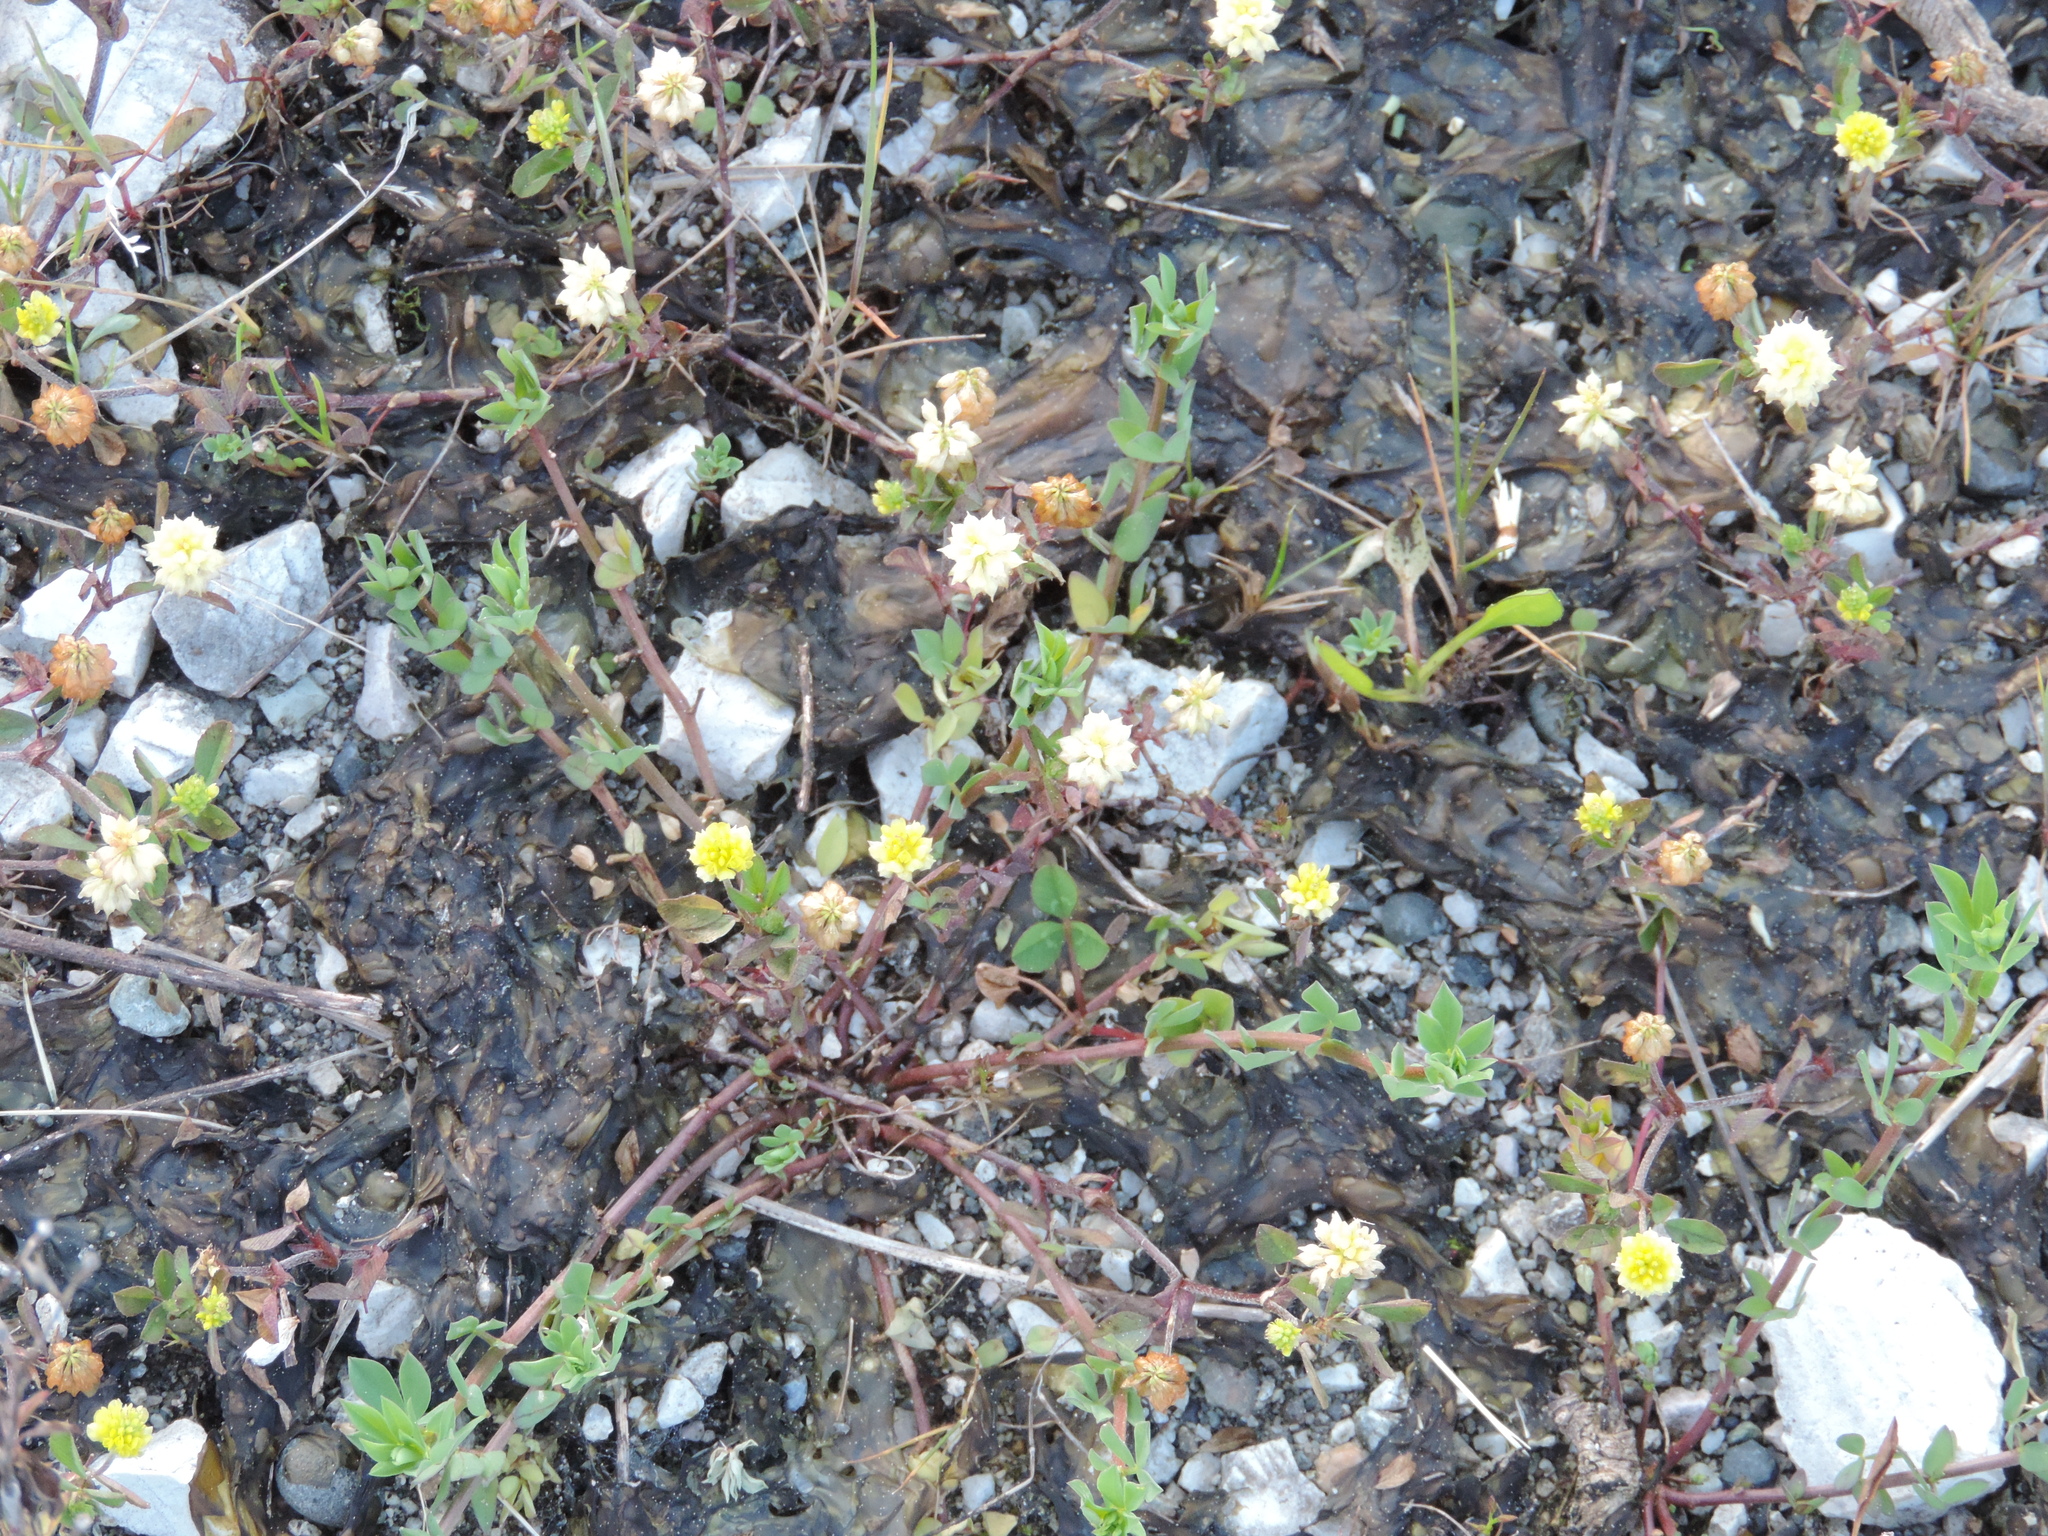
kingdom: Plantae
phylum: Tracheophyta
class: Magnoliopsida
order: Fabales
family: Fabaceae
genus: Trifolium
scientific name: Trifolium campestre
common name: Field clover
